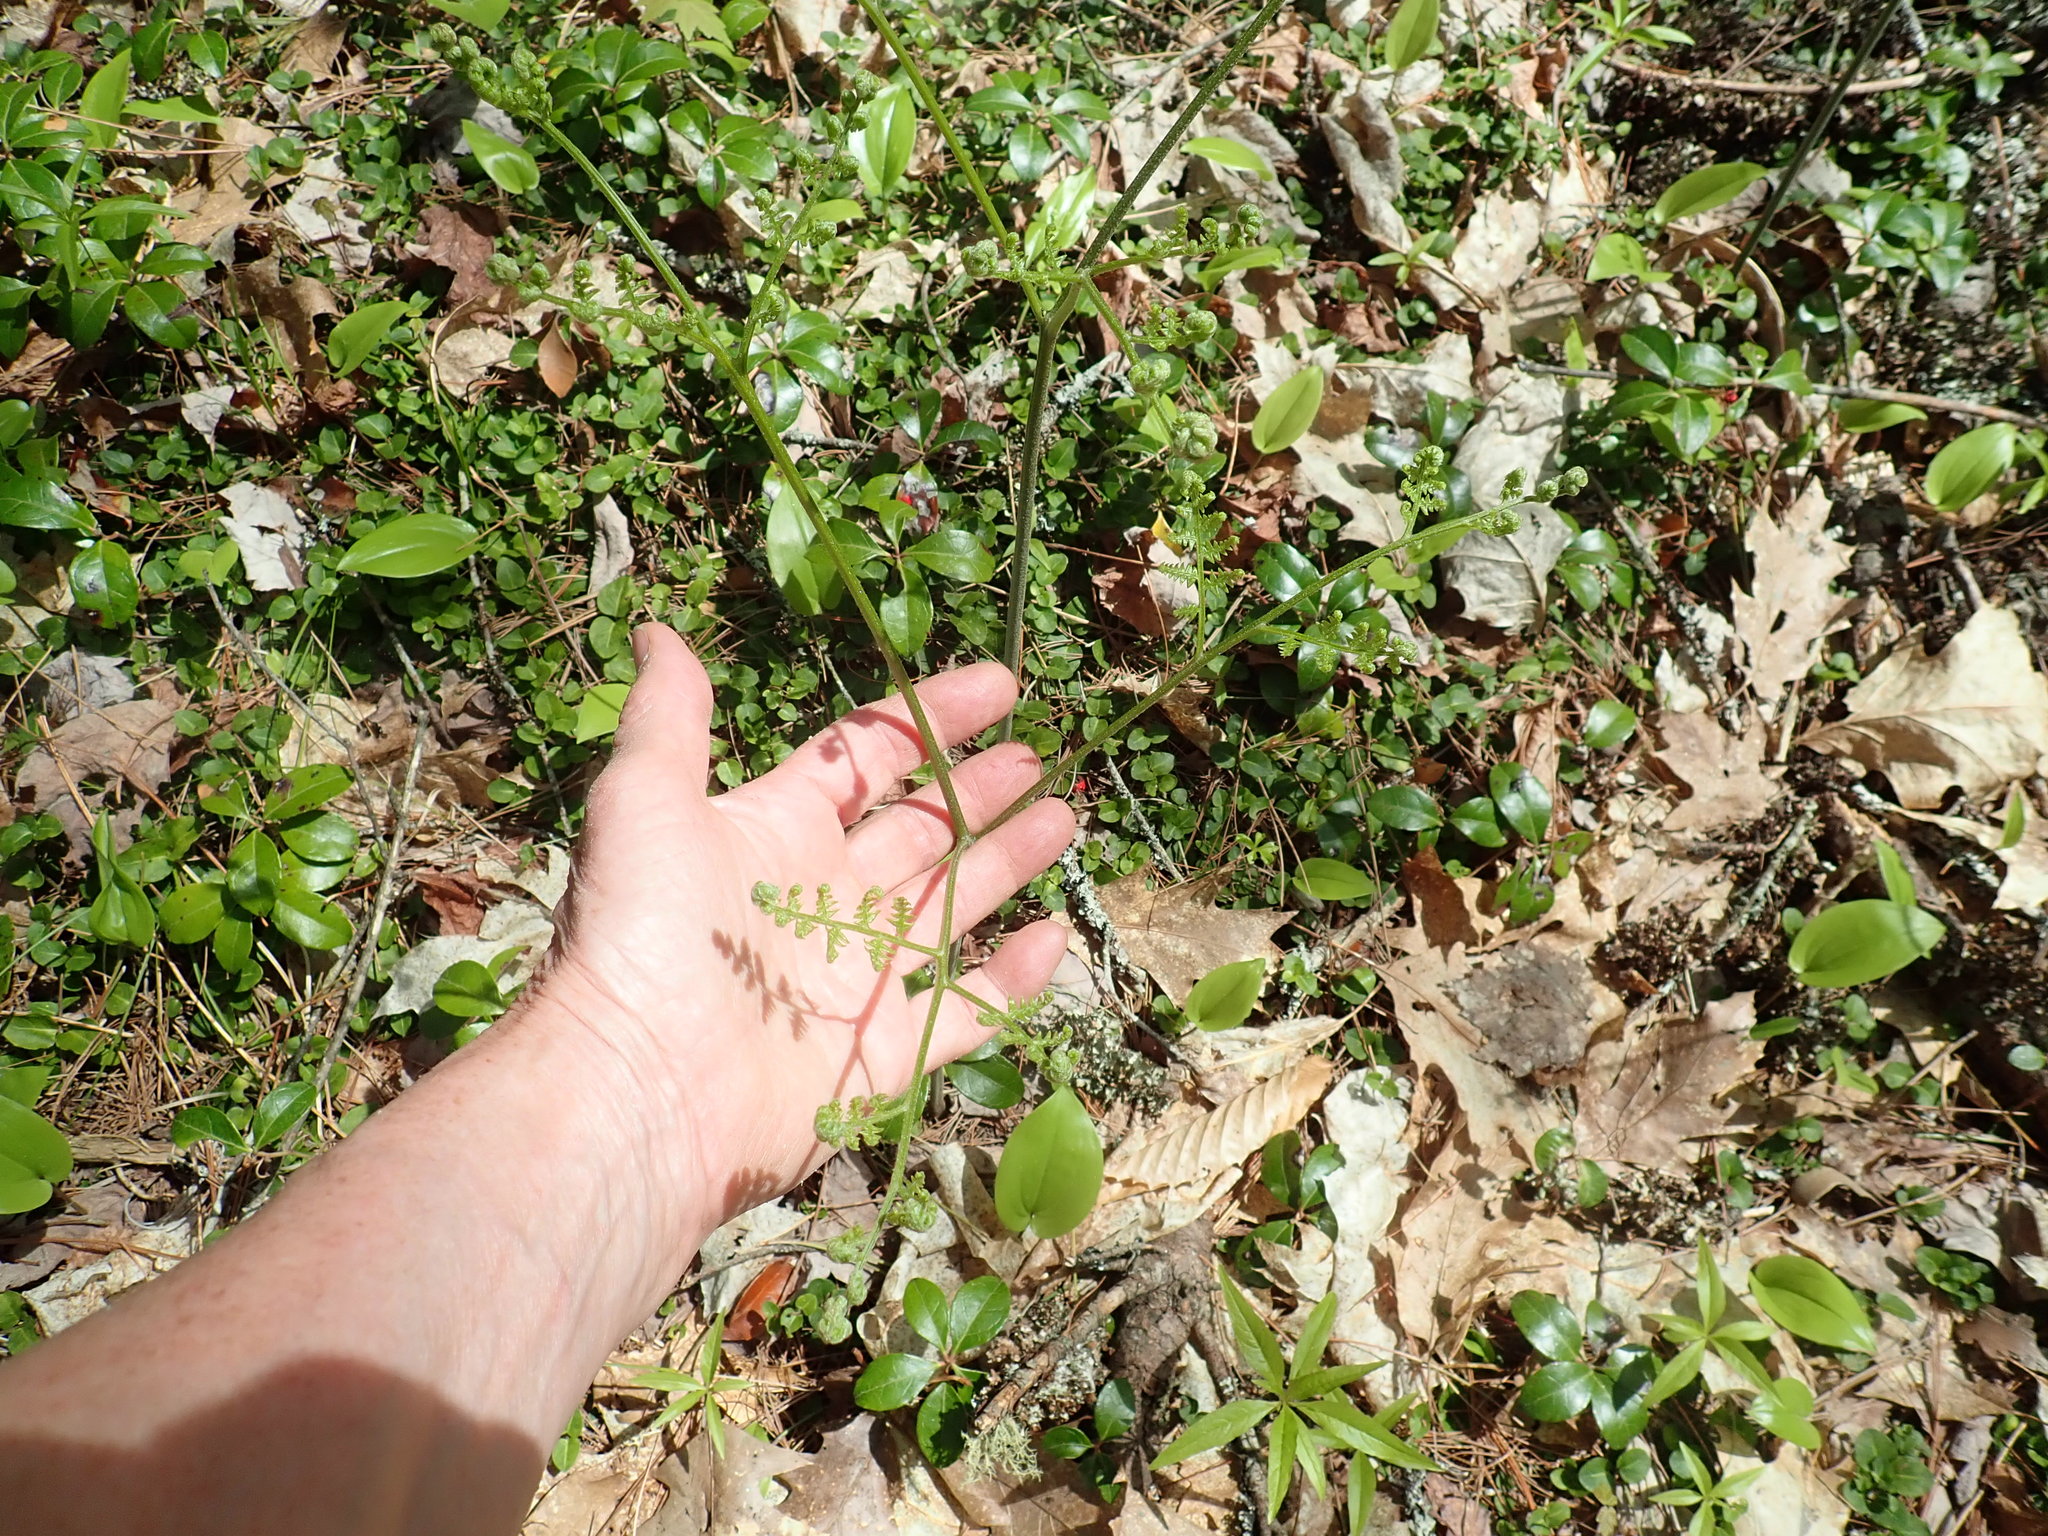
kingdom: Plantae
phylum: Tracheophyta
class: Polypodiopsida
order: Polypodiales
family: Dennstaedtiaceae
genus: Pteridium
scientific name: Pteridium aquilinum
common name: Bracken
